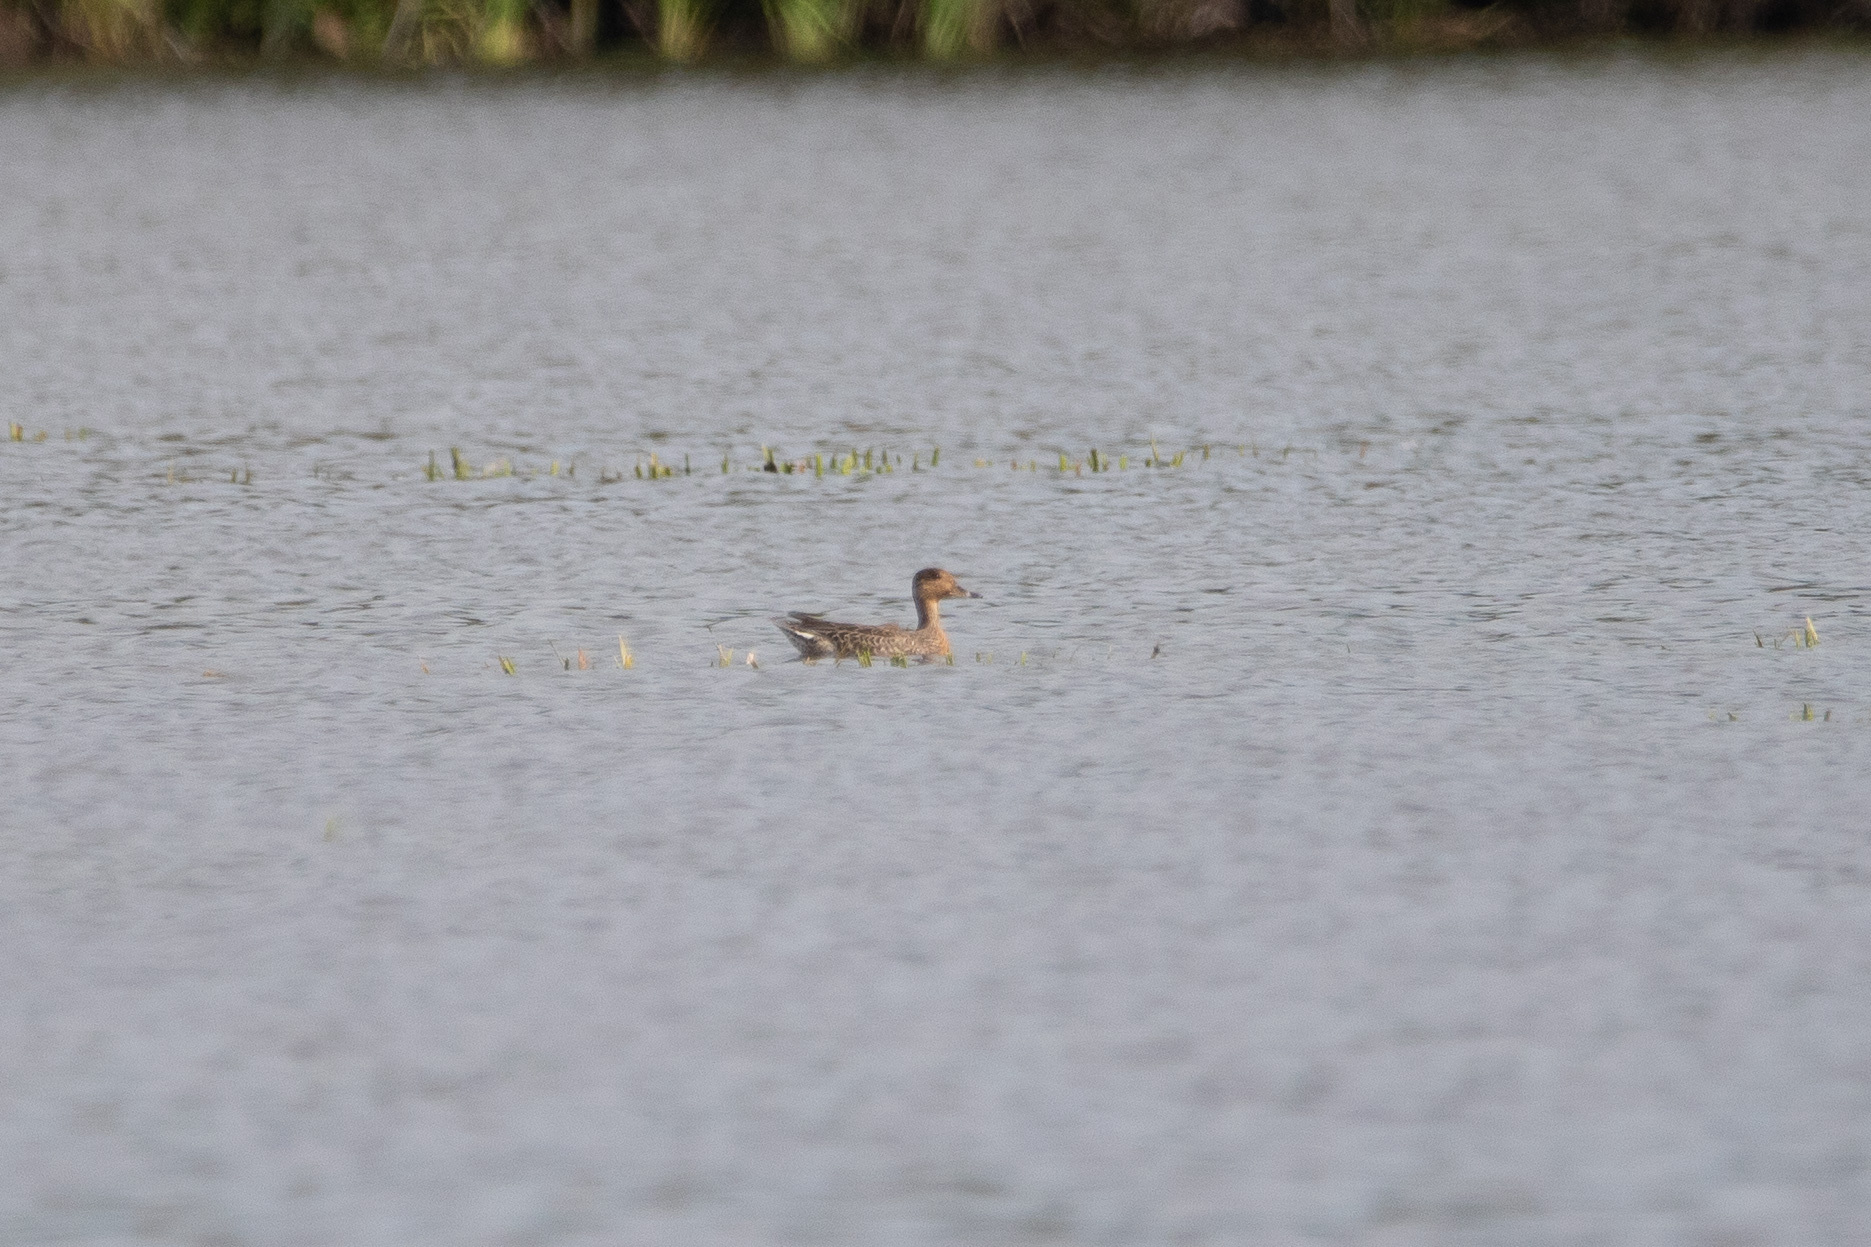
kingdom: Animalia
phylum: Chordata
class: Aves
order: Anseriformes
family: Anatidae
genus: Anas
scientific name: Anas crecca
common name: Eurasian teal
